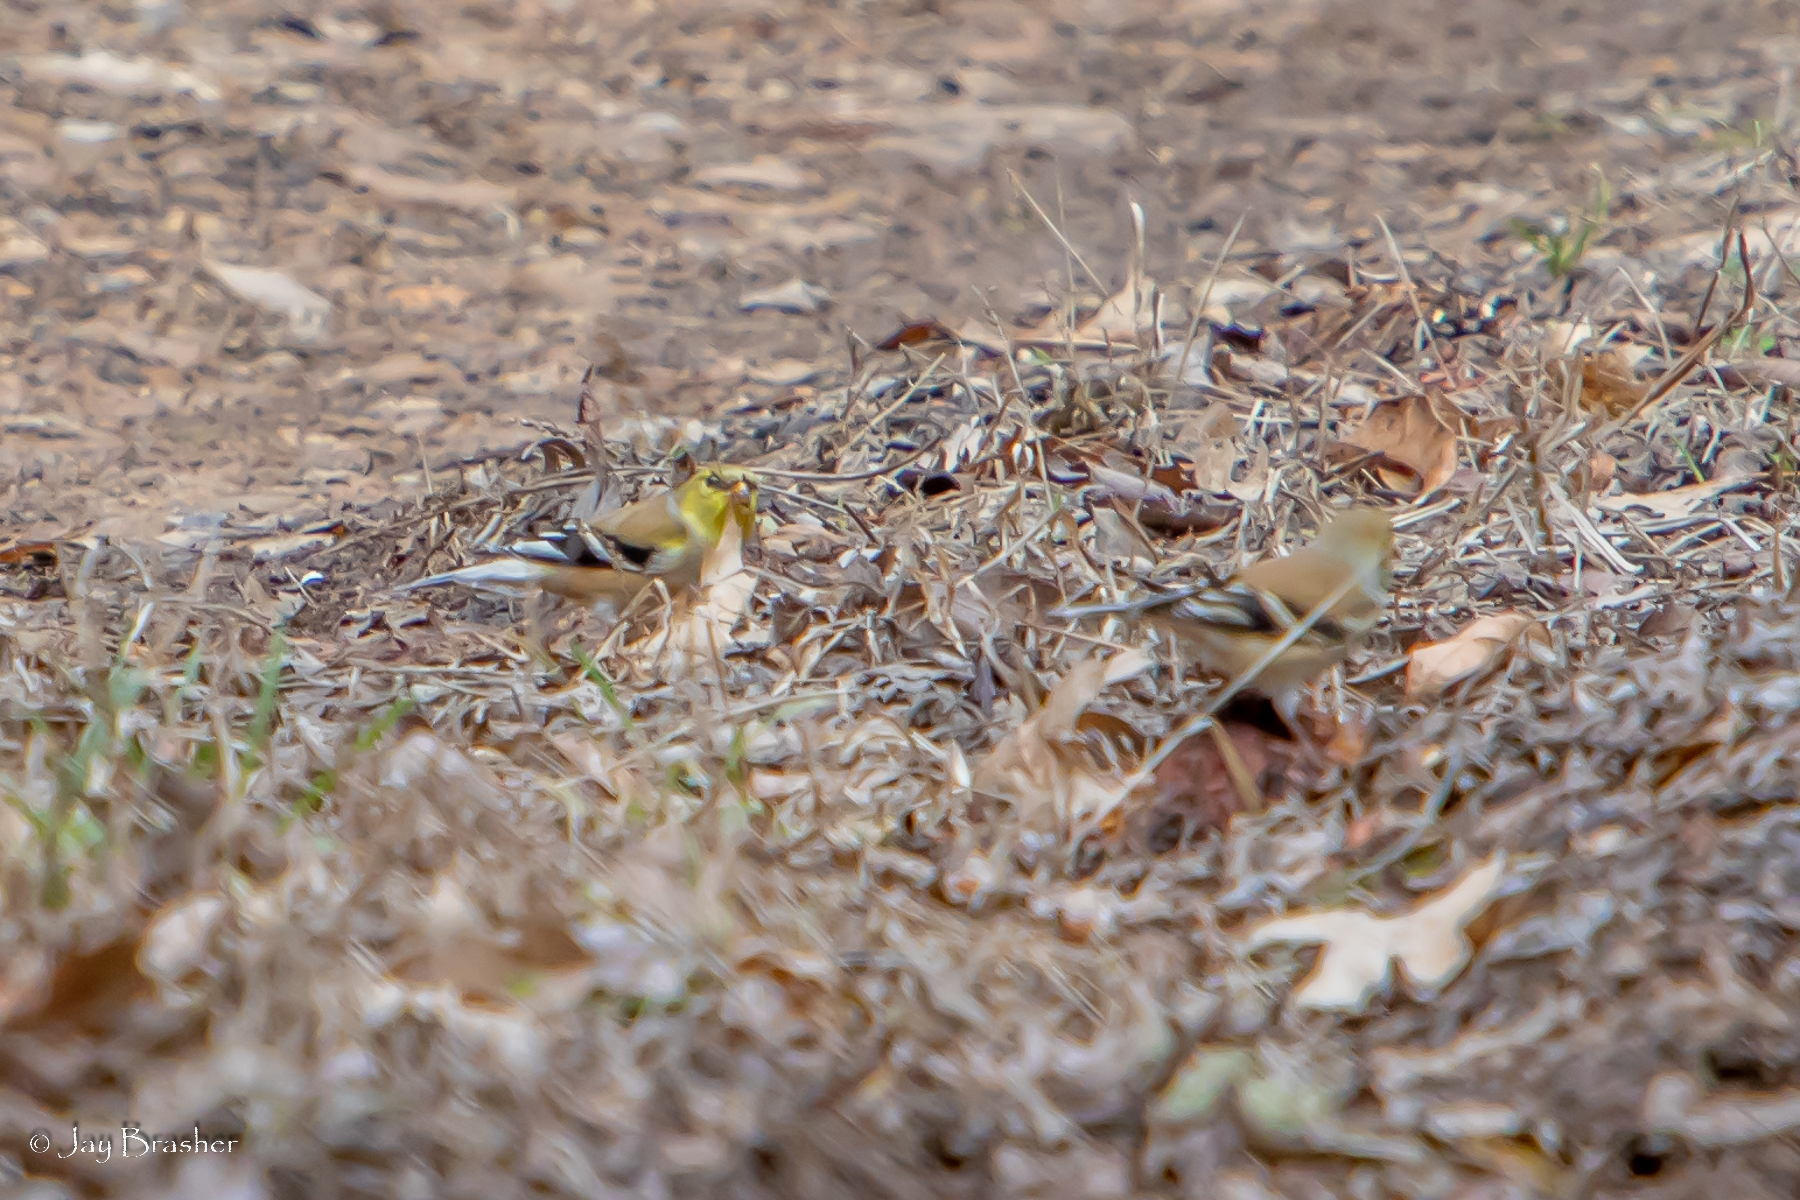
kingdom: Animalia
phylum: Chordata
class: Aves
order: Passeriformes
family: Fringillidae
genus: Spinus
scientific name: Spinus tristis
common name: American goldfinch
